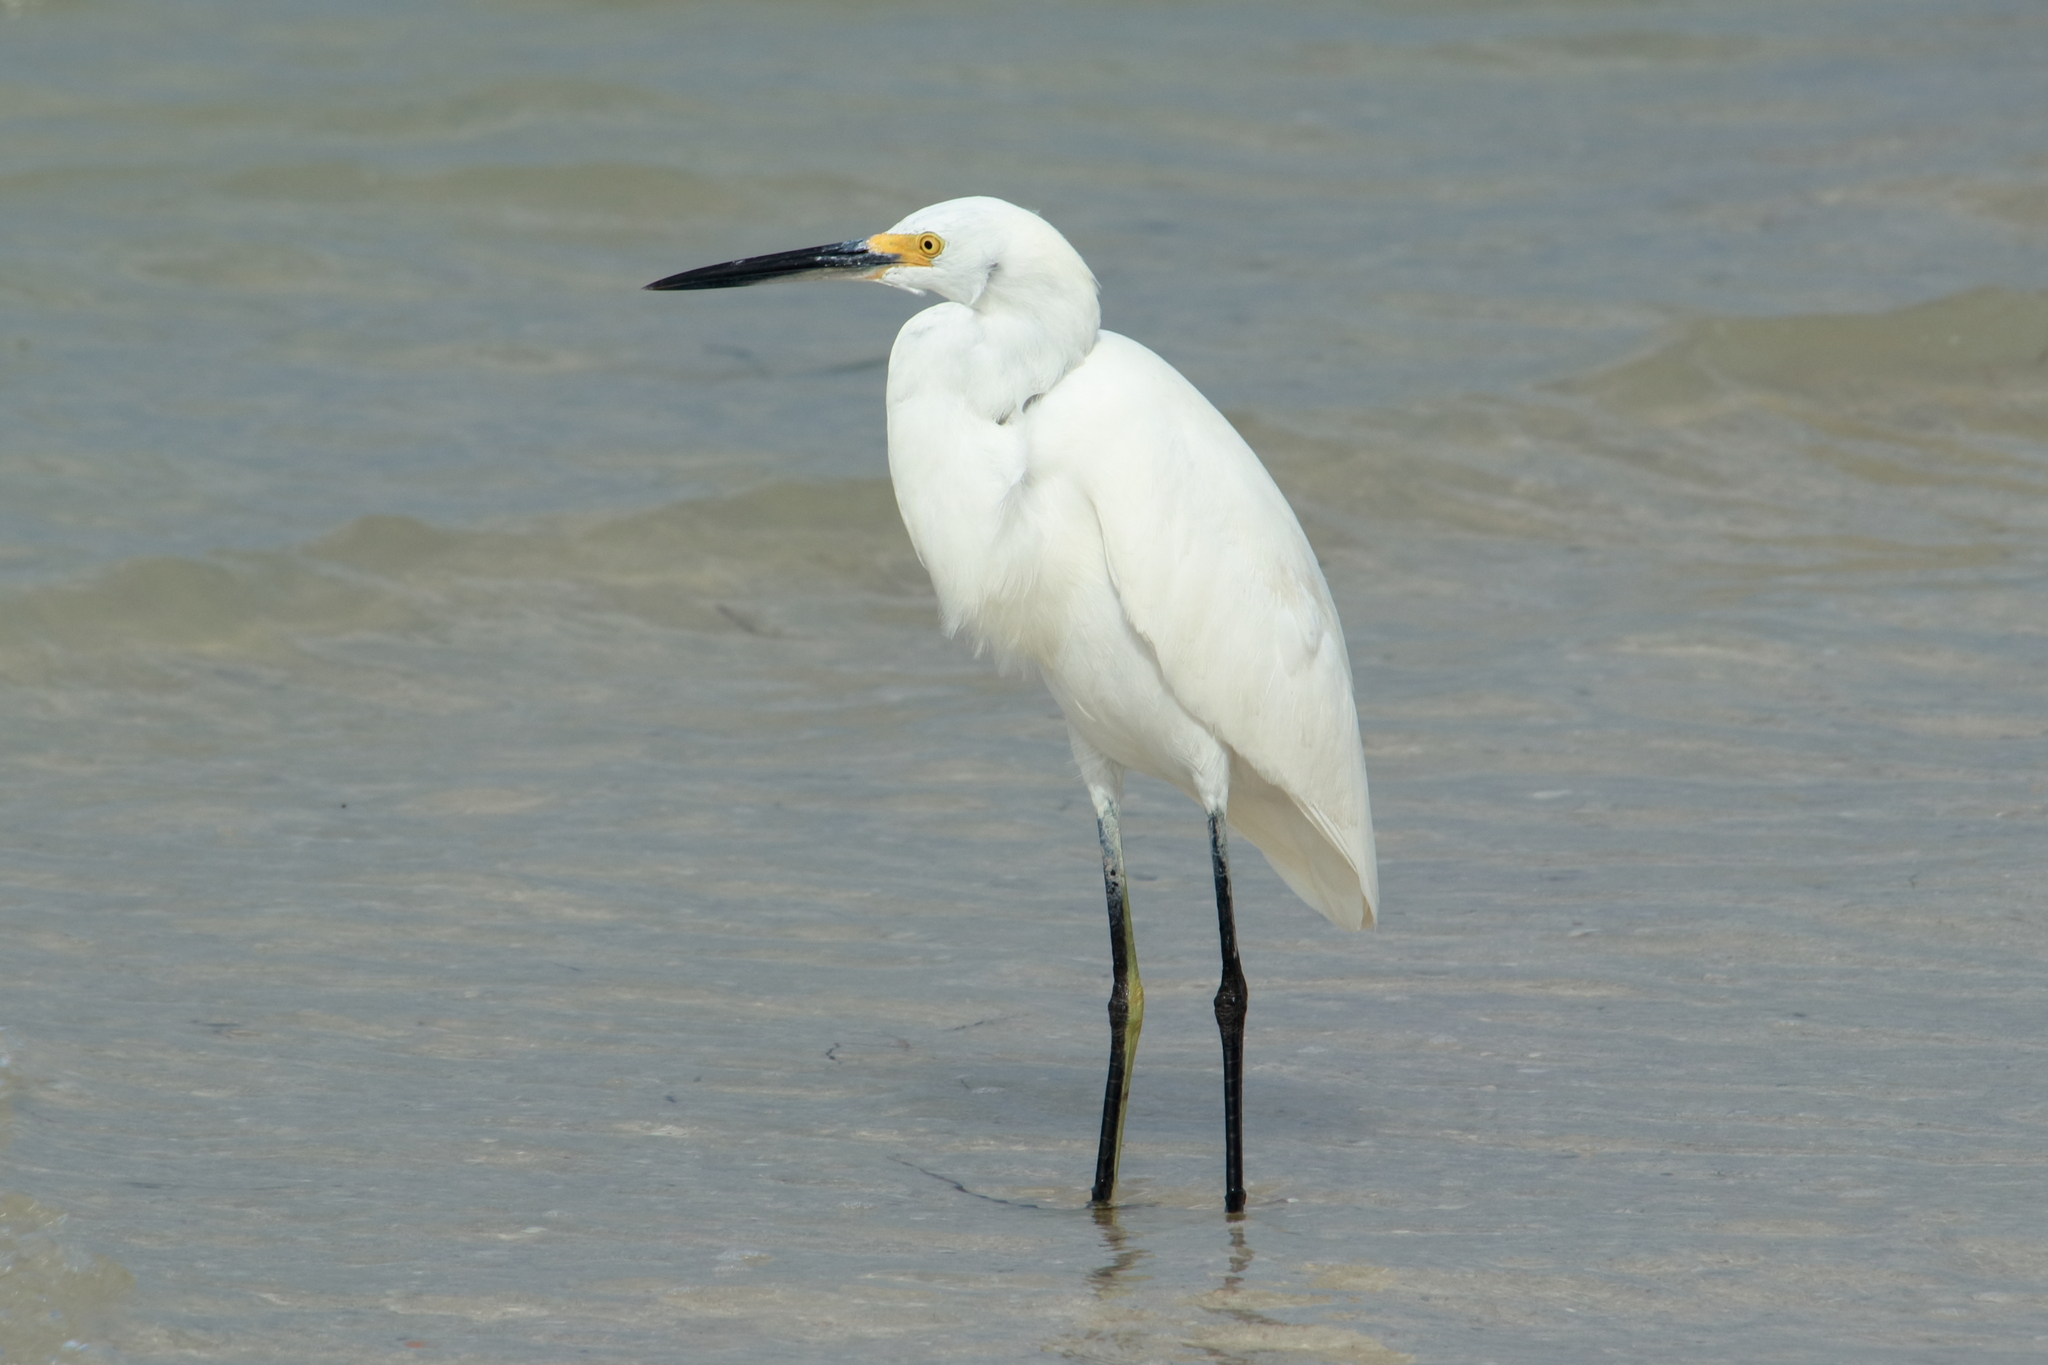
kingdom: Animalia
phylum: Chordata
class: Aves
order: Pelecaniformes
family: Ardeidae
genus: Egretta
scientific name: Egretta thula
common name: Snowy egret
